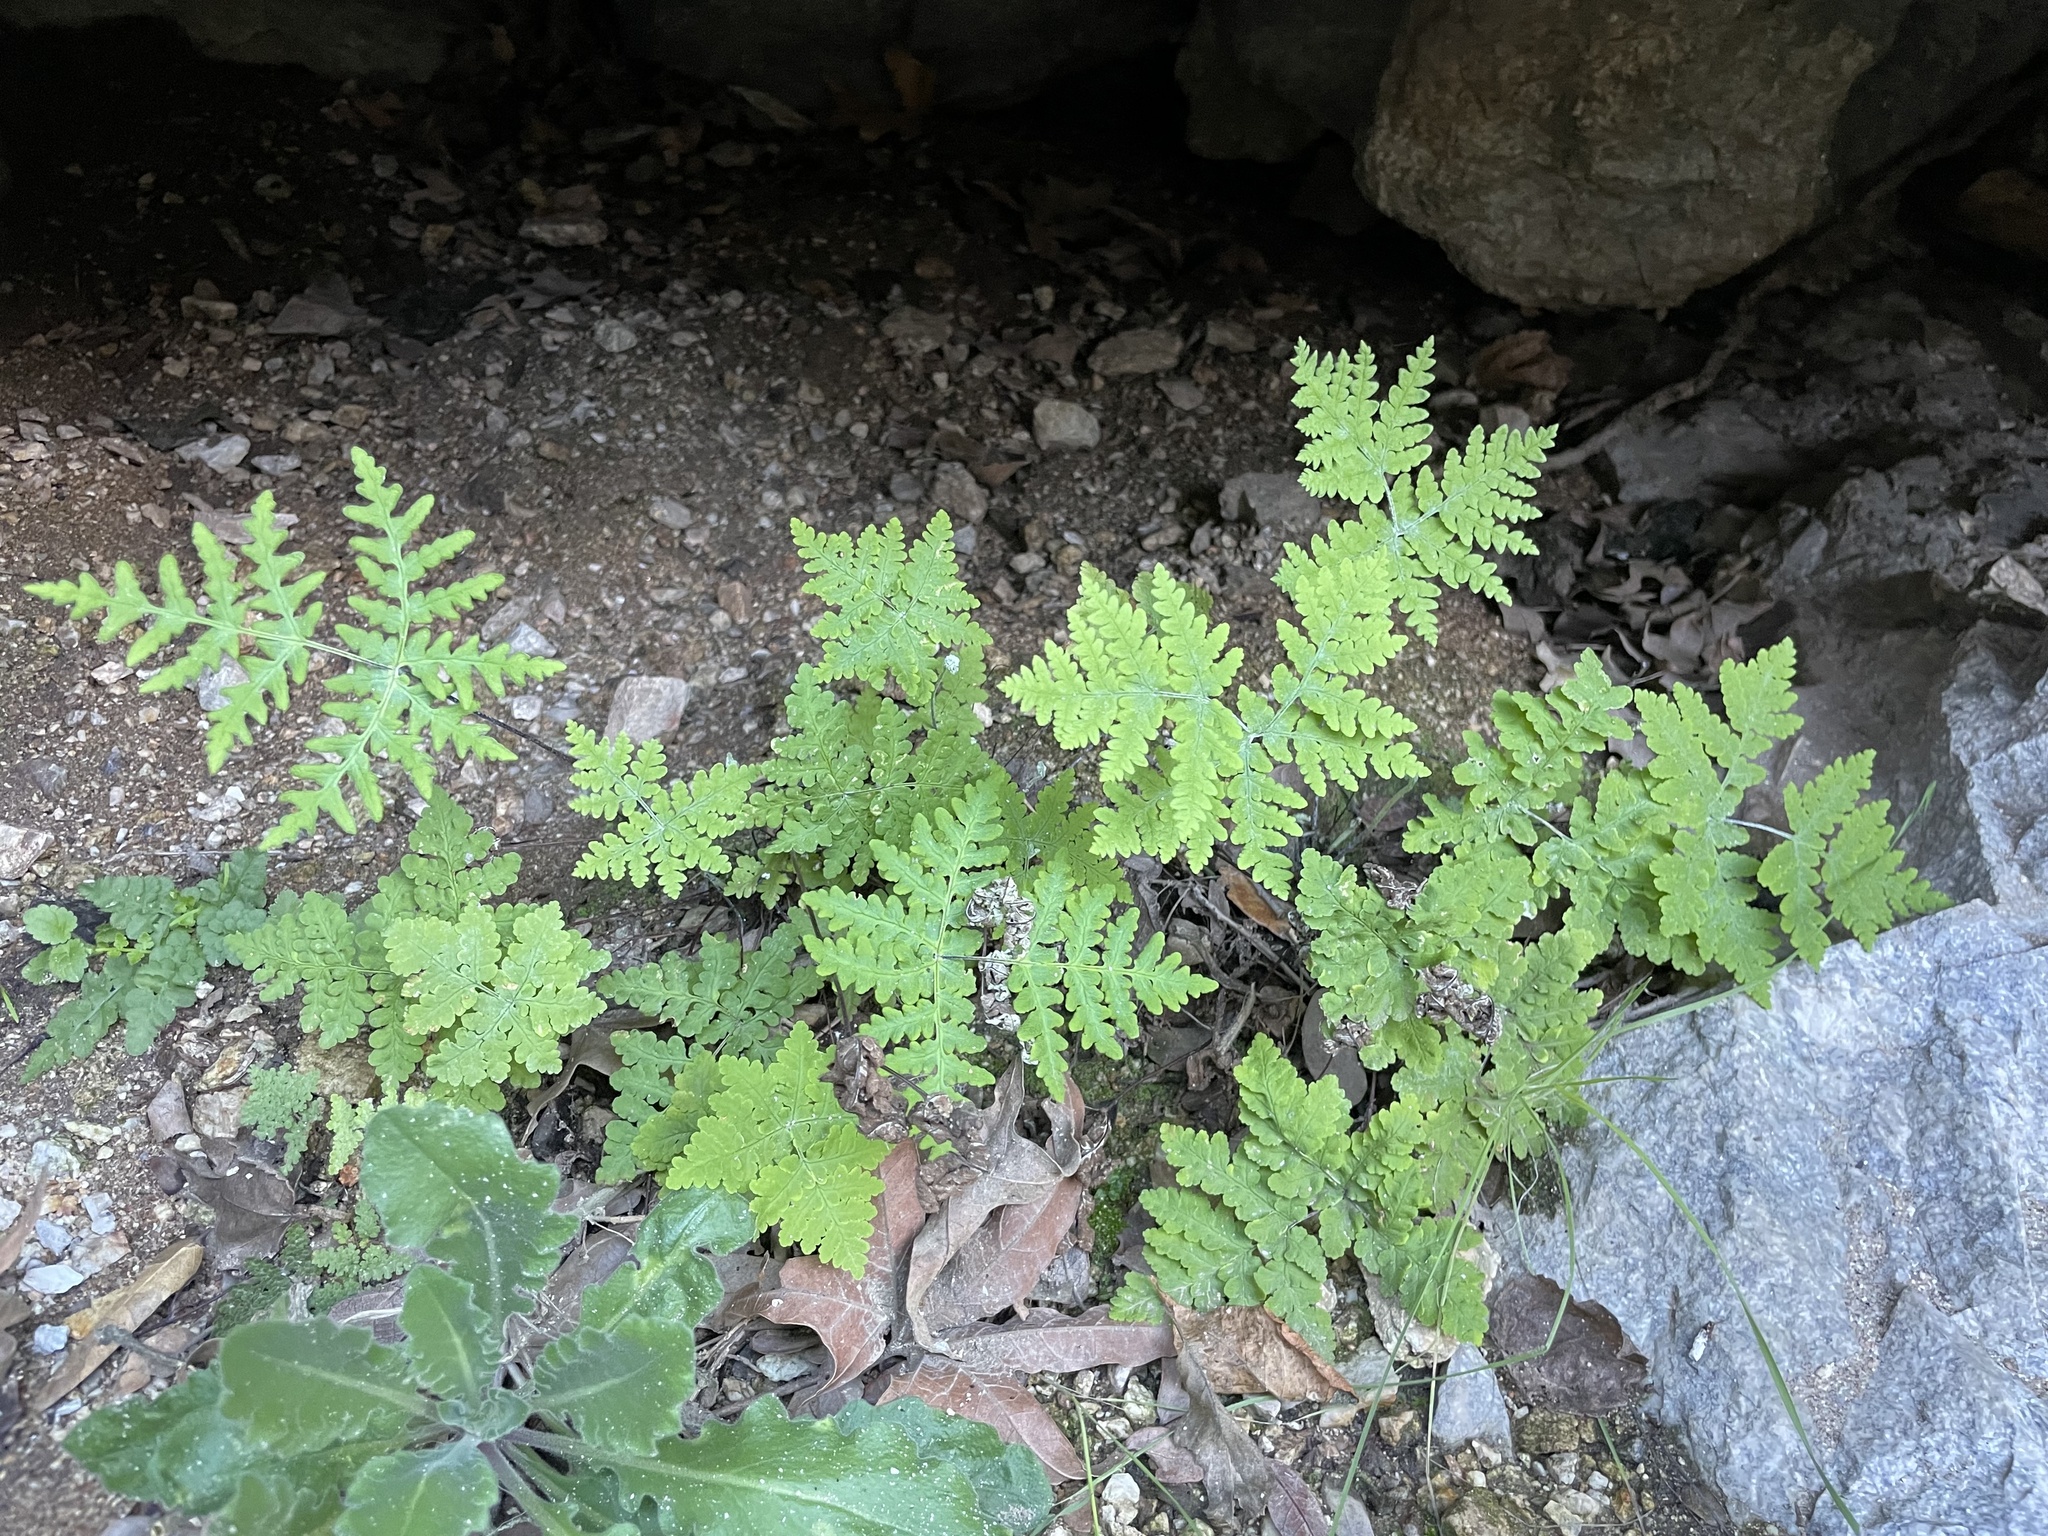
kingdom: Plantae
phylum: Tracheophyta
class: Polypodiopsida
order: Polypodiales
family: Pteridaceae
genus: Pentagramma
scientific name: Pentagramma maxonii
